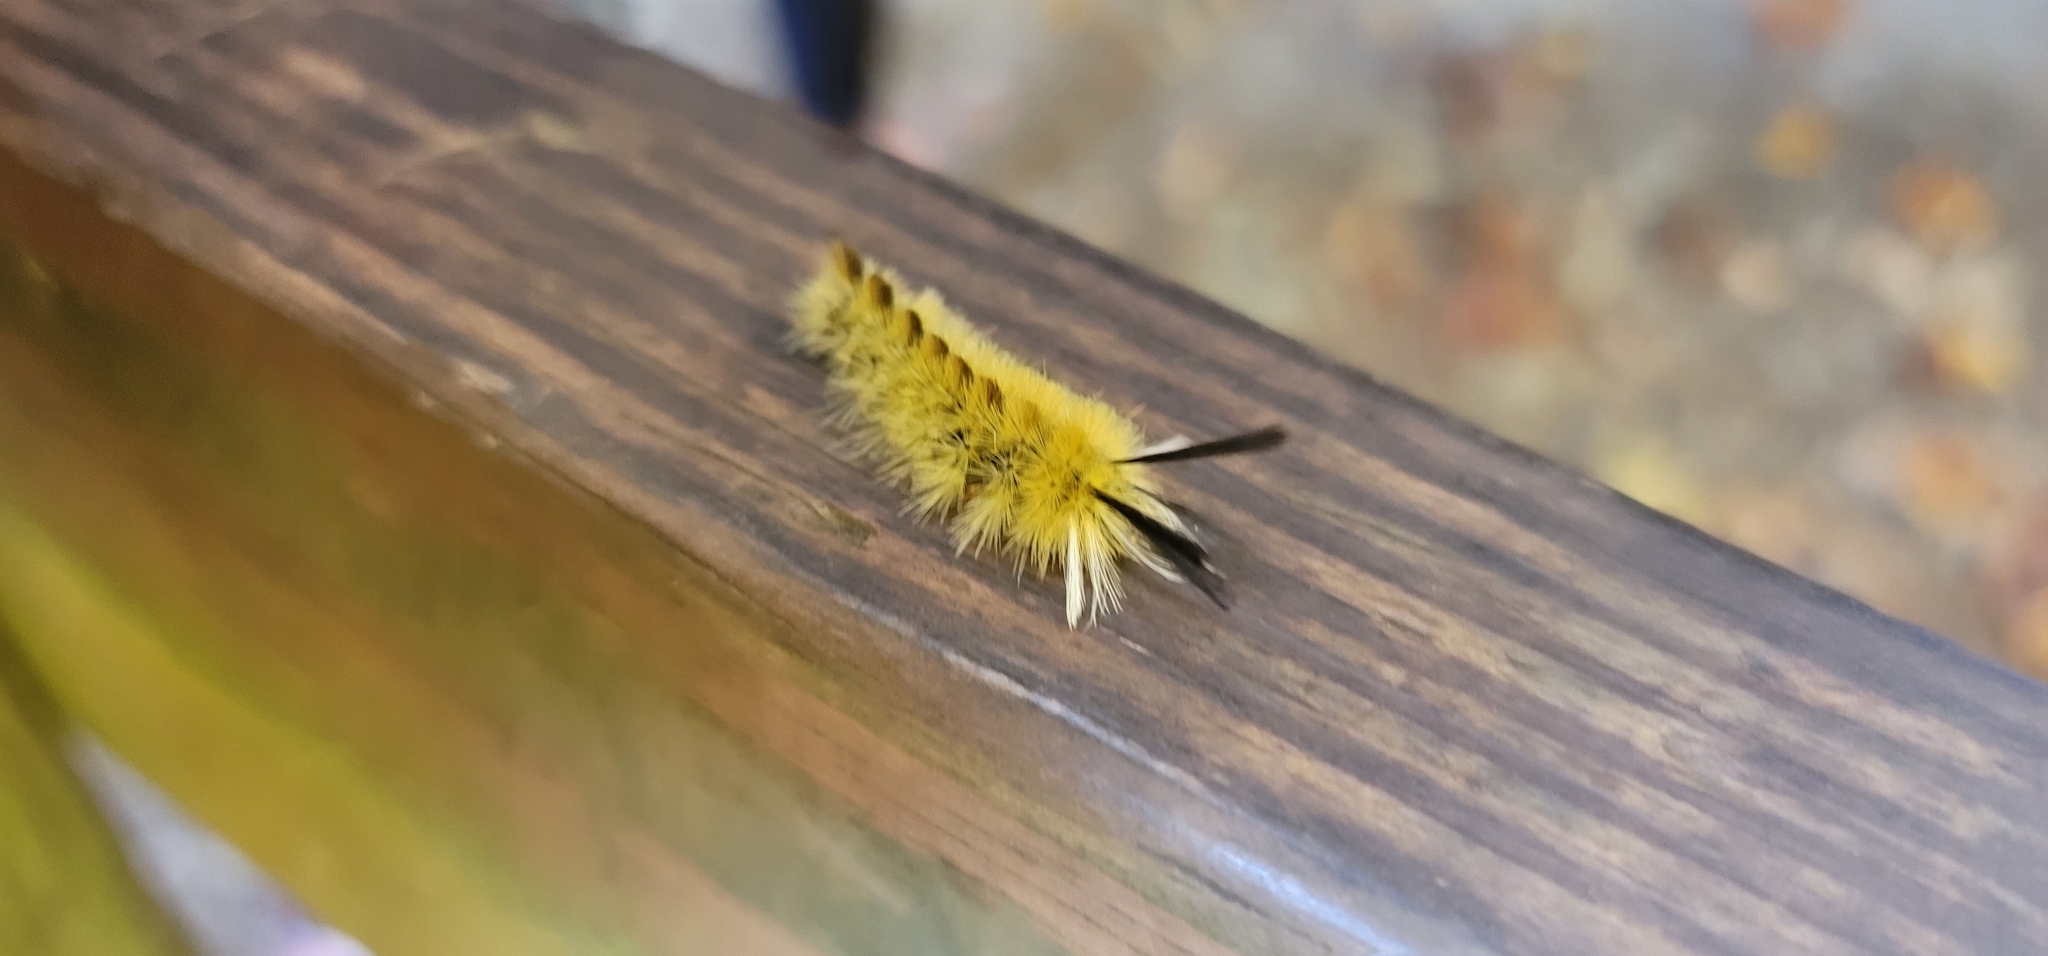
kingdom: Animalia
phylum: Arthropoda
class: Insecta
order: Lepidoptera
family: Erebidae
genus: Halysidota
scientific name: Halysidota tessellaris
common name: Banded tussock moth
